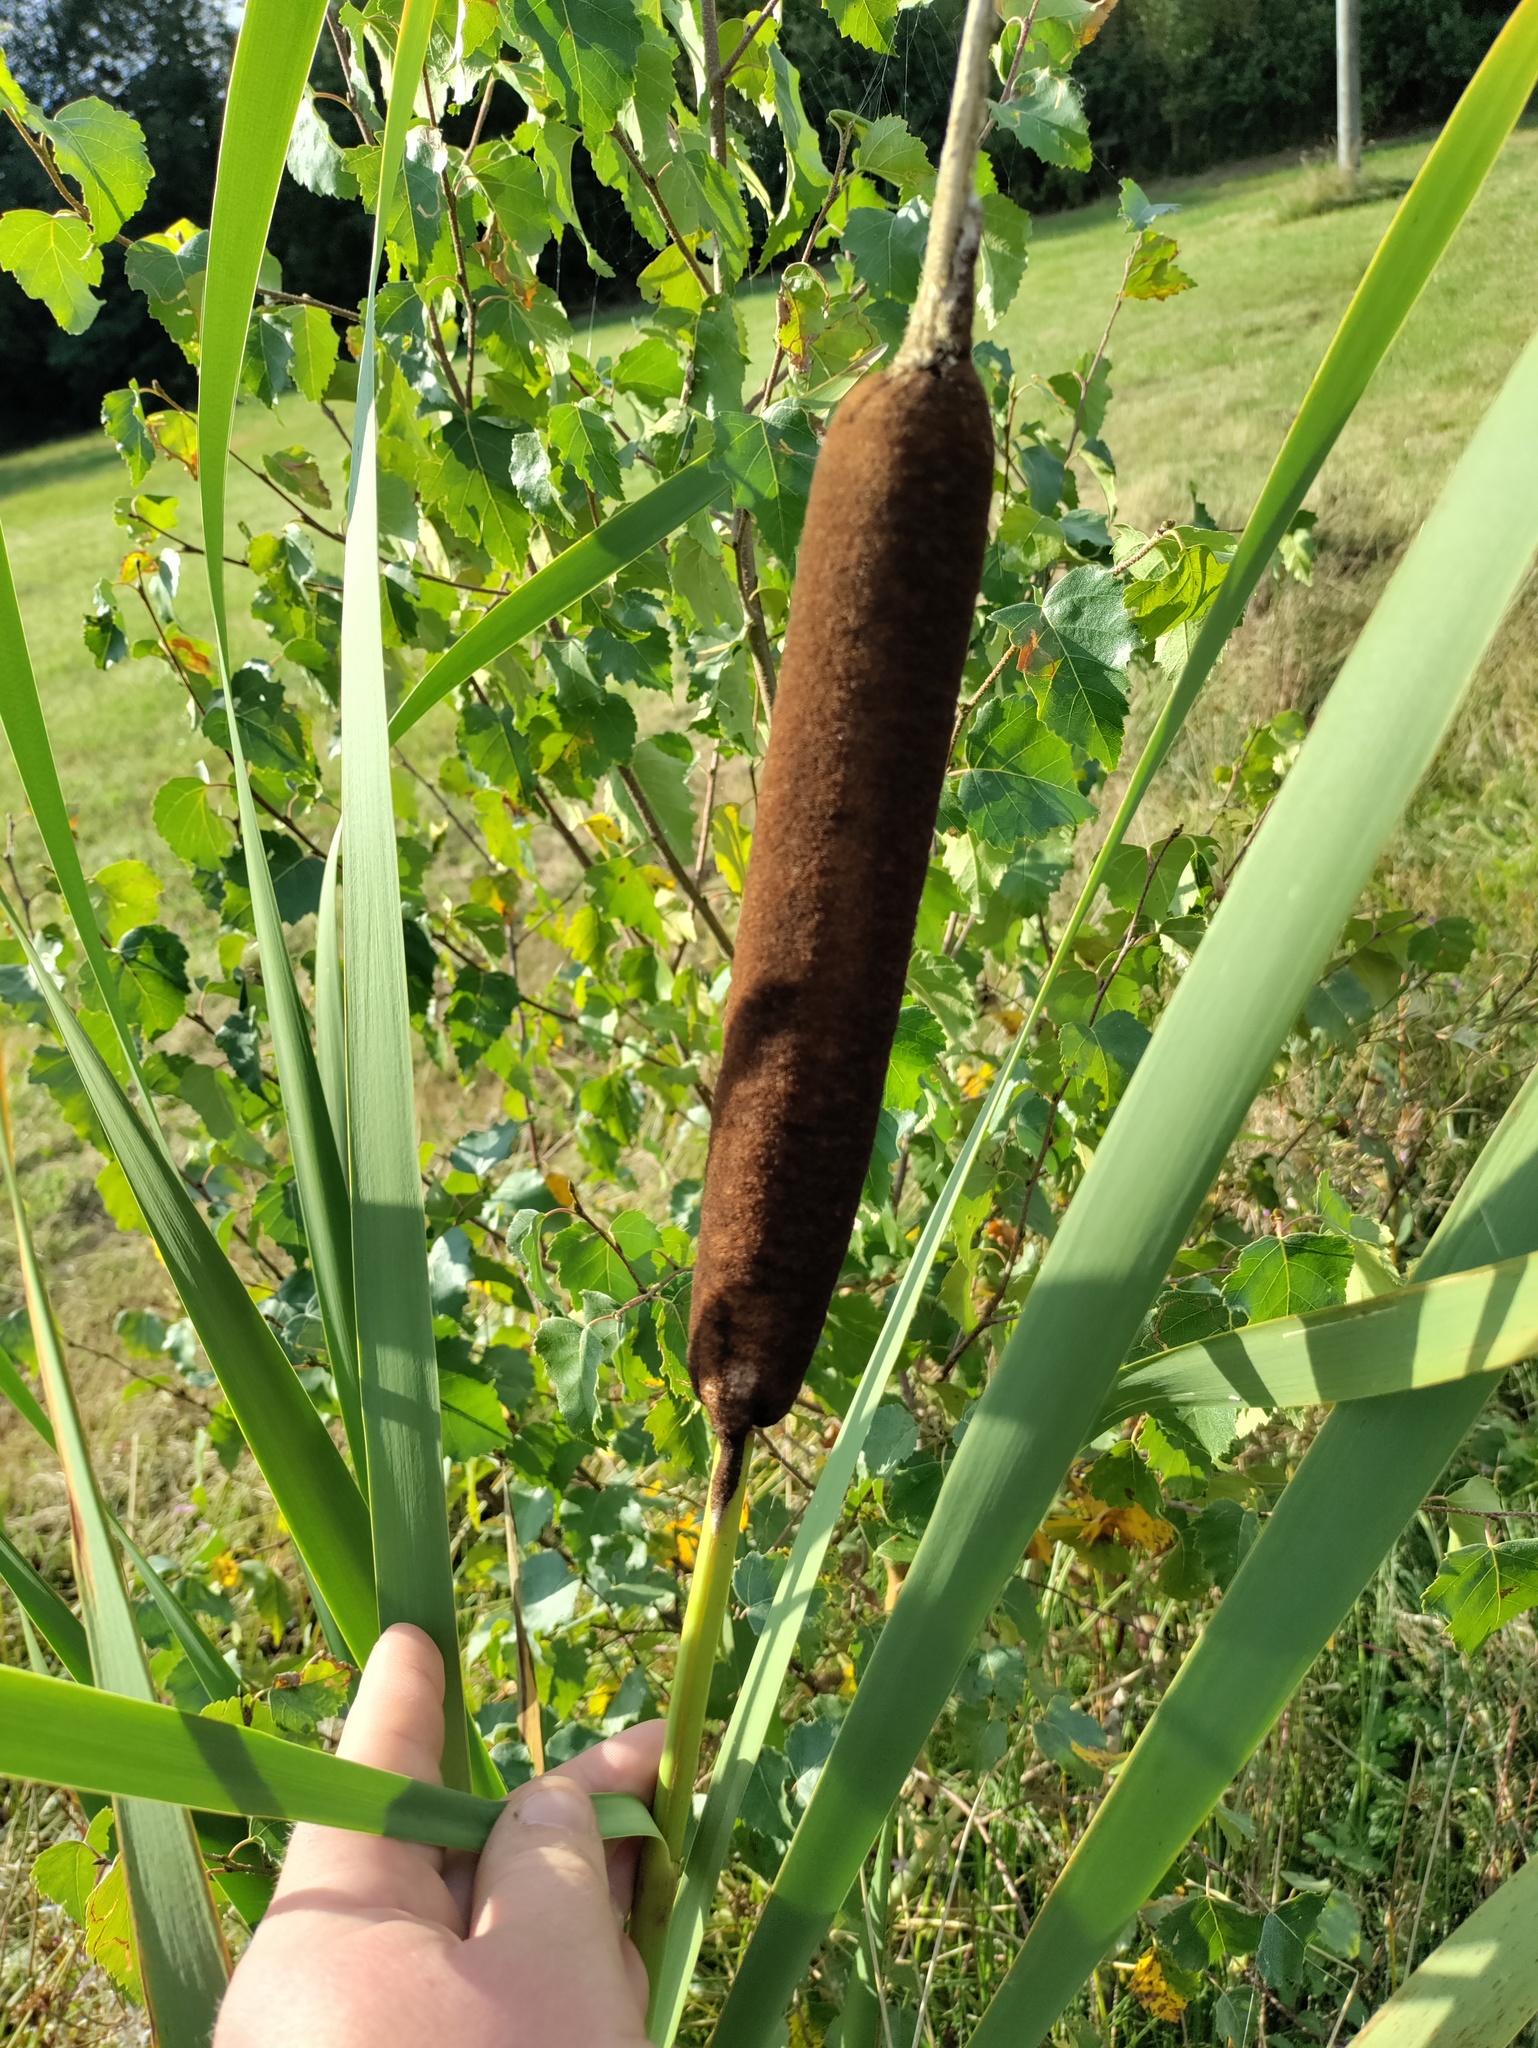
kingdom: Plantae
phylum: Tracheophyta
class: Liliopsida
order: Poales
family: Typhaceae
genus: Typha
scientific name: Typha latifolia
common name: Broadleaf cattail
